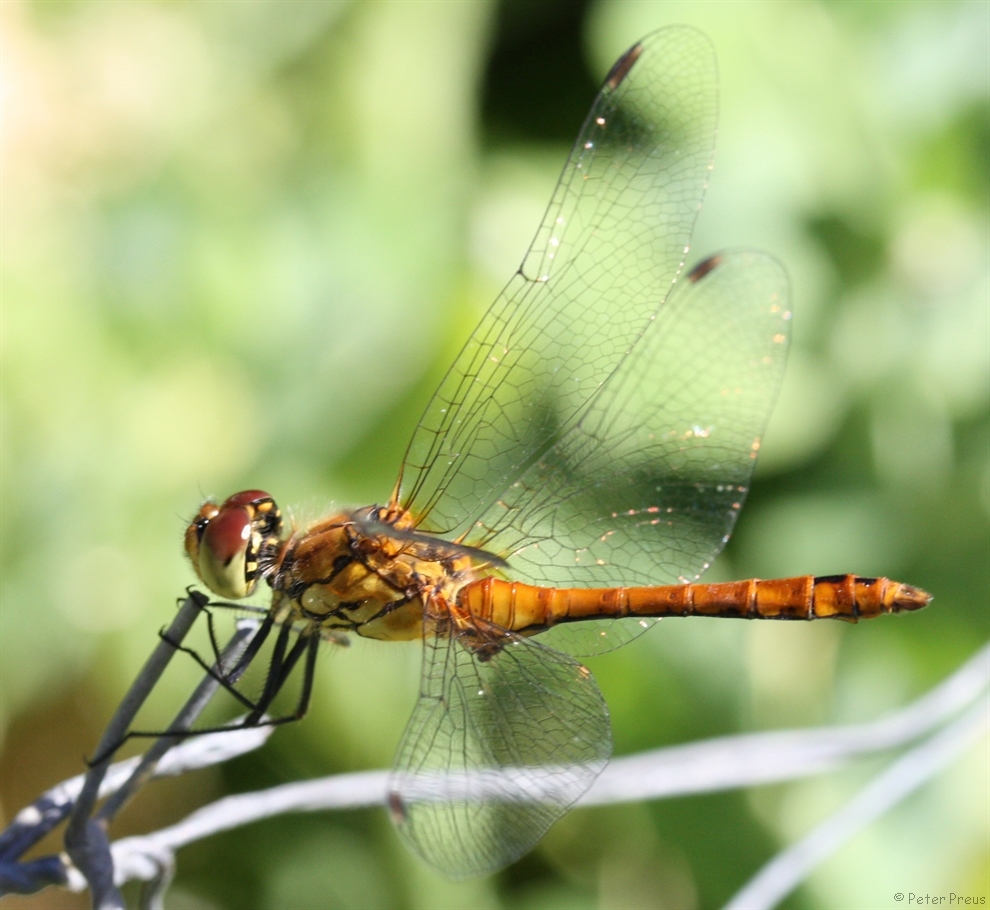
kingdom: Animalia
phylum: Arthropoda
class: Insecta
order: Odonata
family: Libellulidae
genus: Sympetrum
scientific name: Sympetrum sanguineum
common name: Ruddy darter
